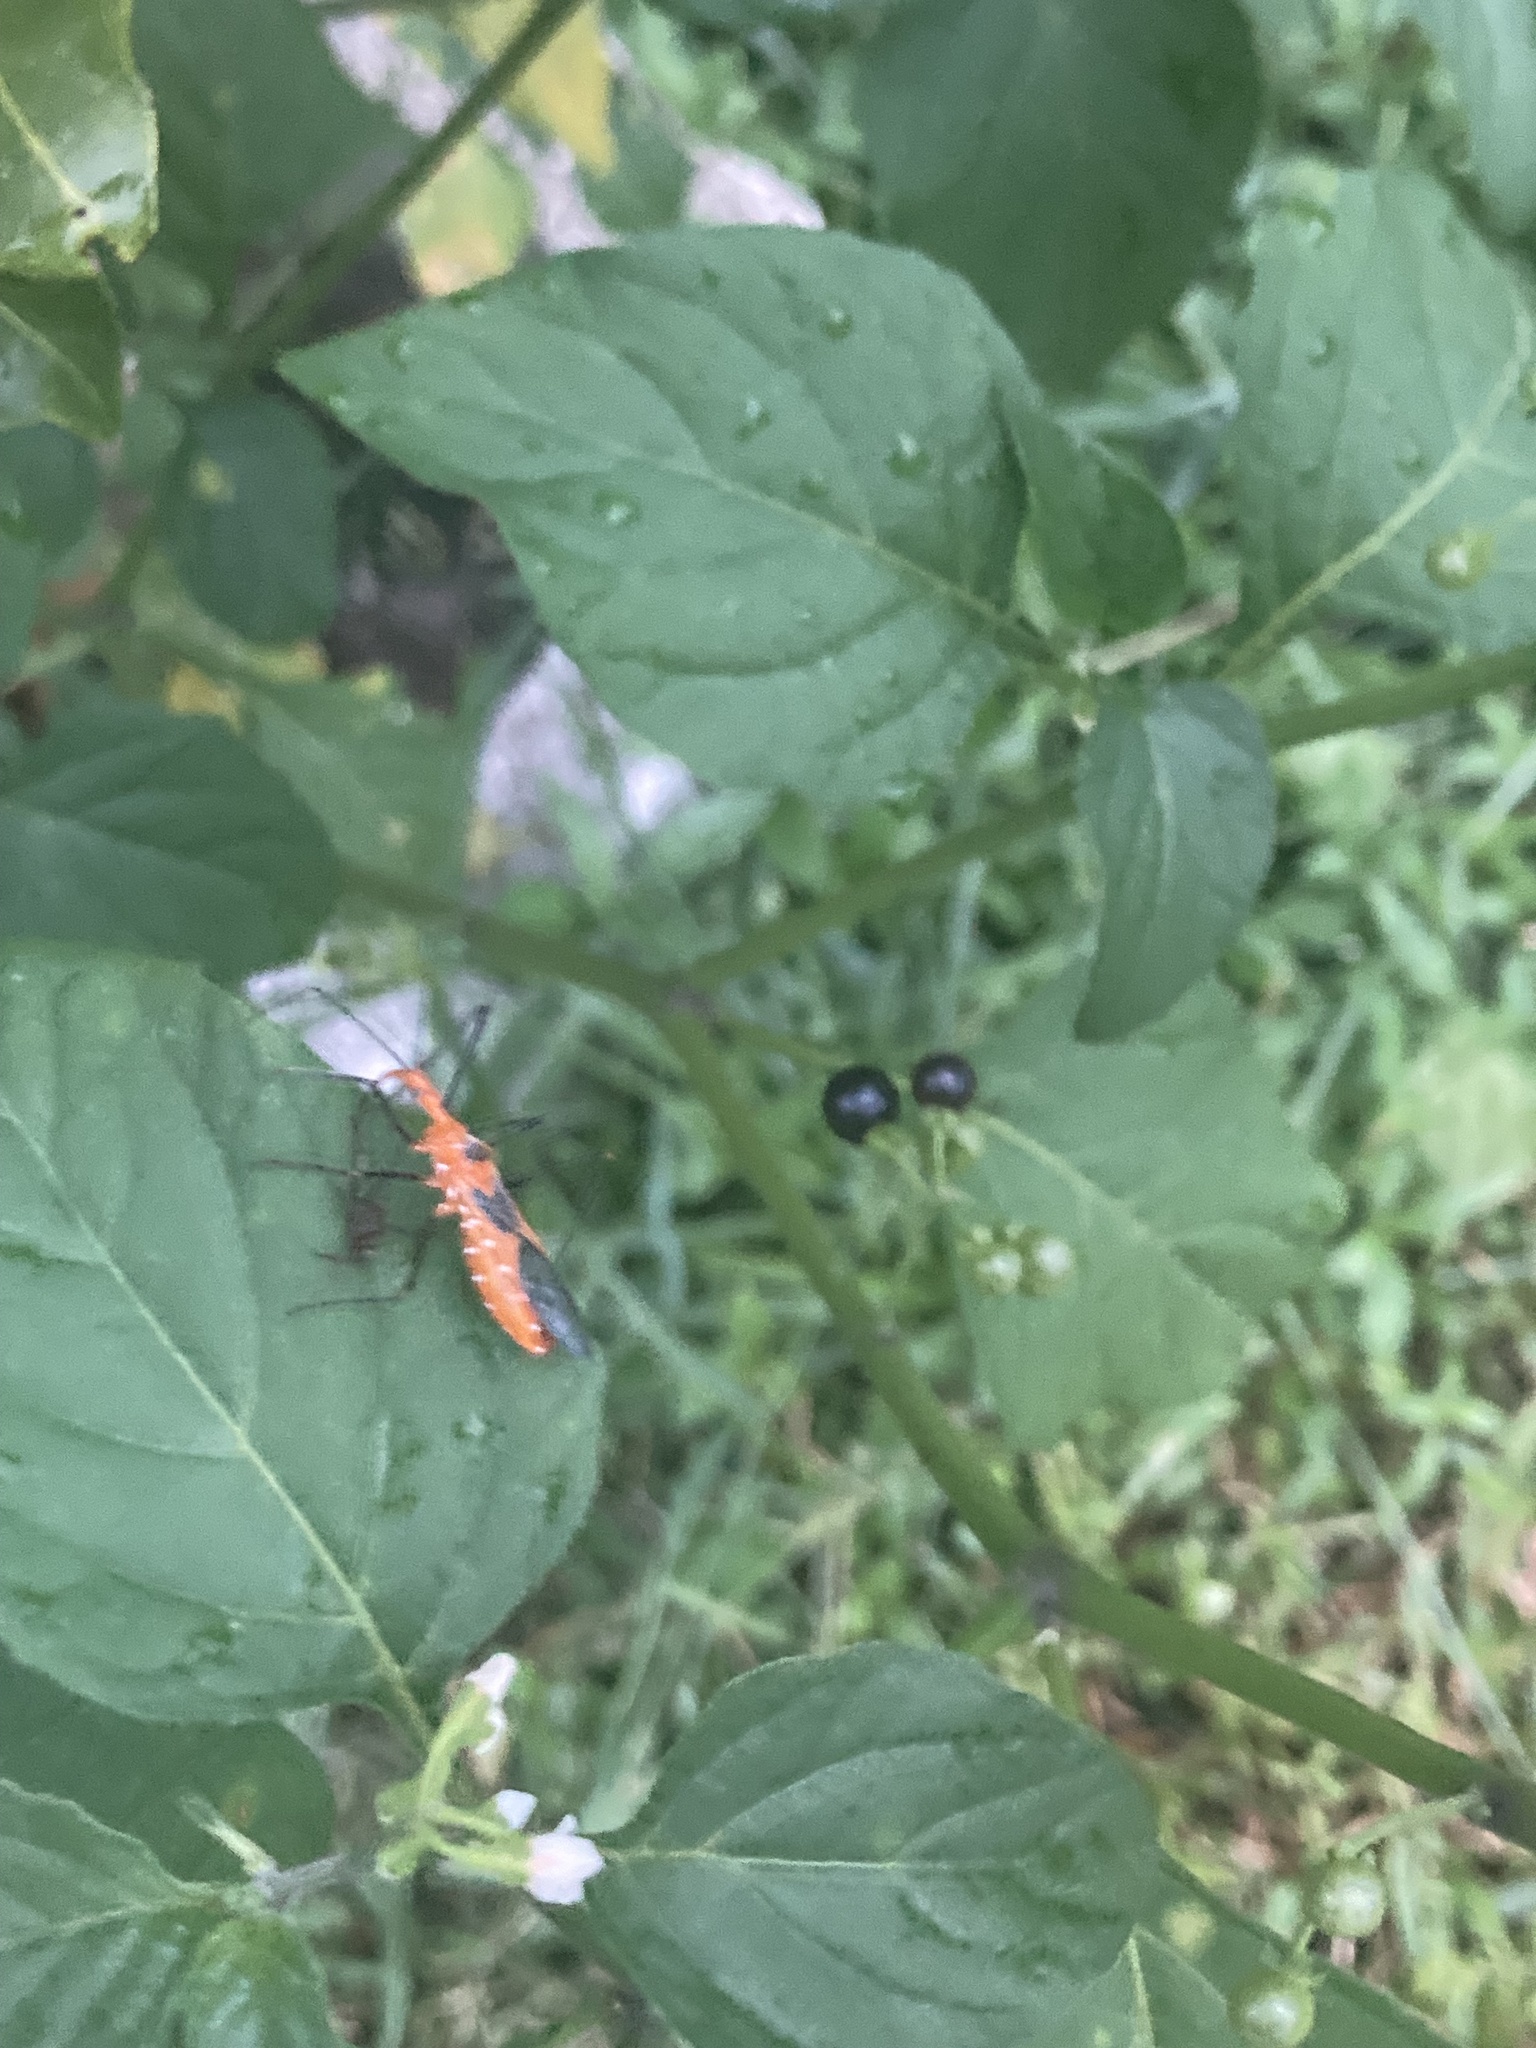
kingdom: Animalia
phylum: Arthropoda
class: Insecta
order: Hemiptera
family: Reduviidae
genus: Zelus
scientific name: Zelus longipes
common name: Milkweed assassin bug
